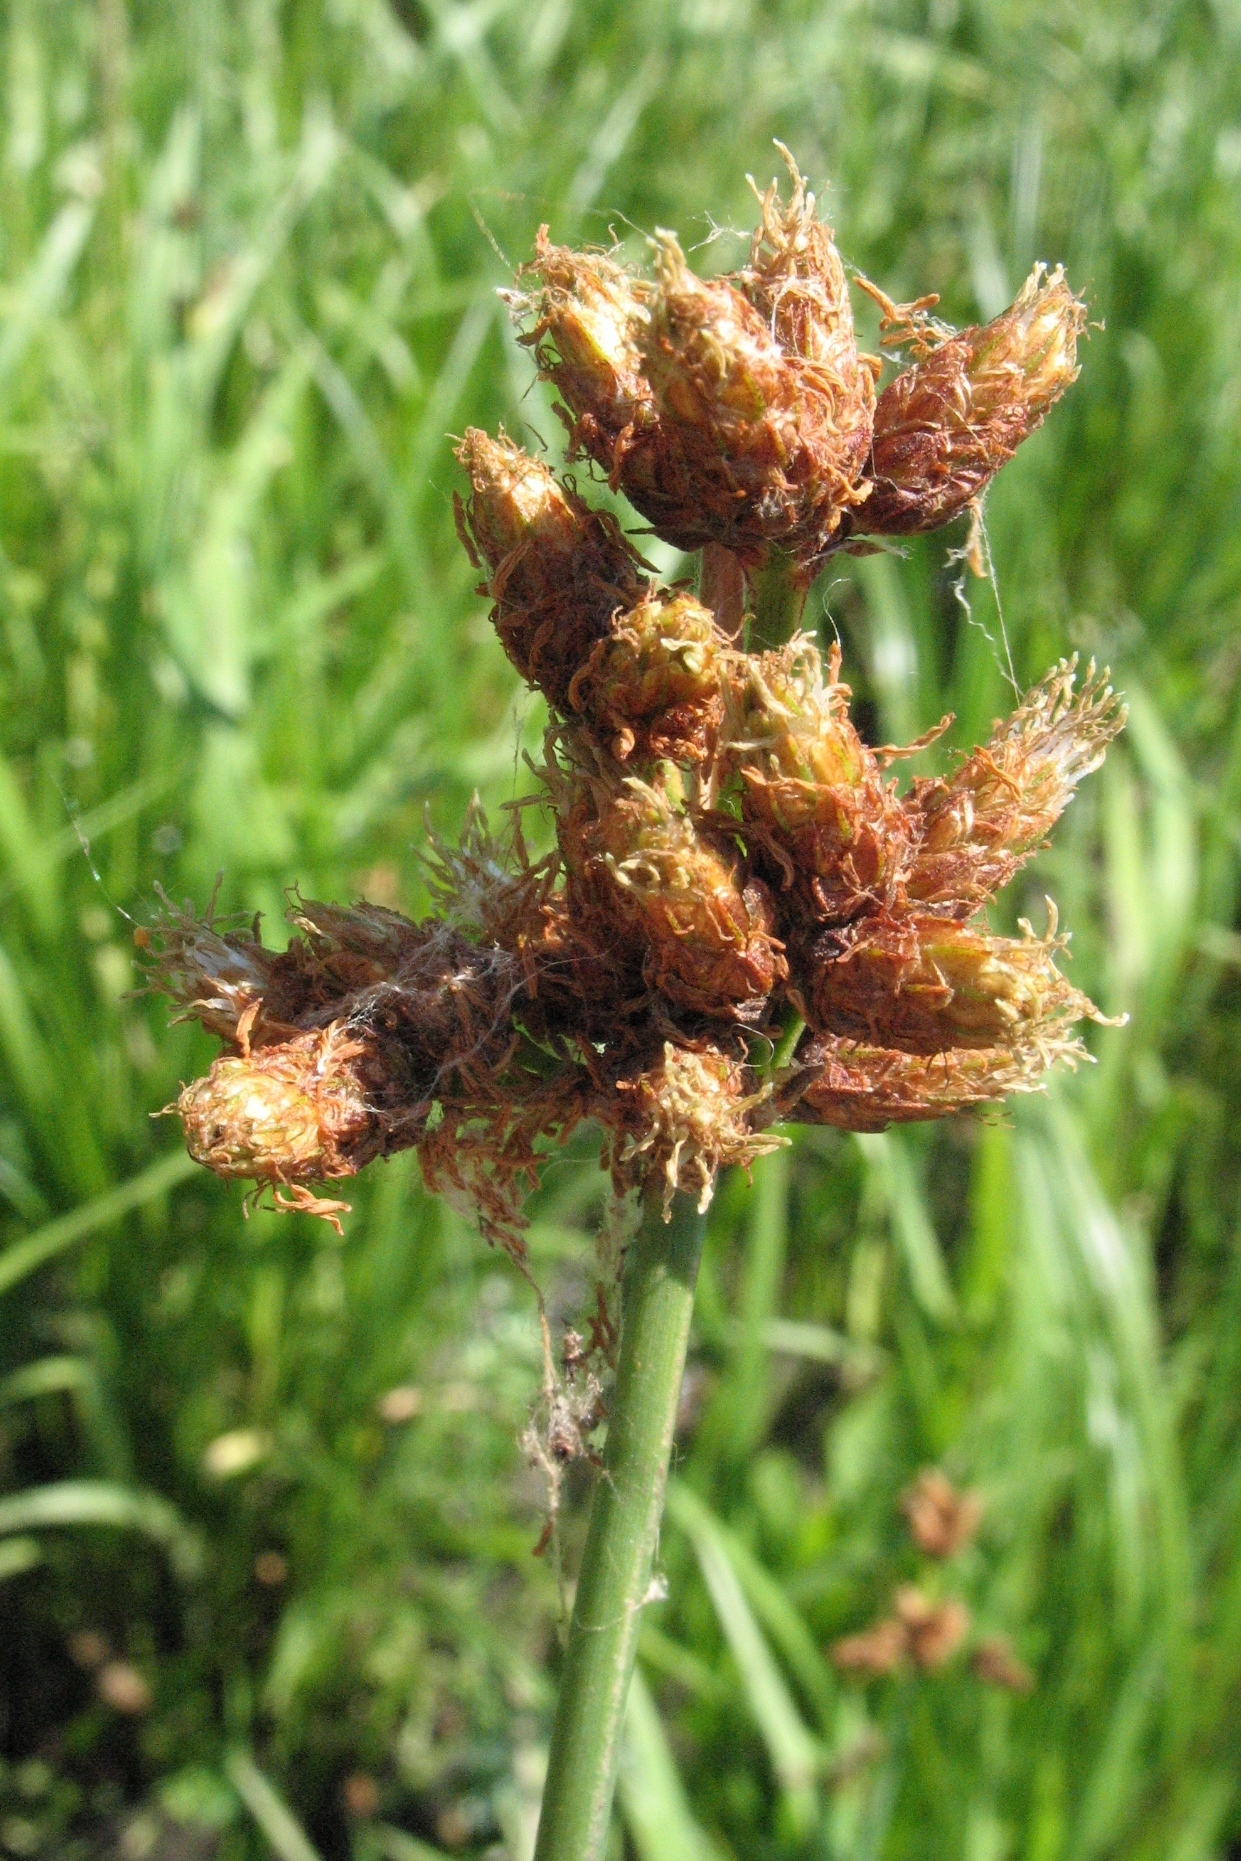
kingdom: Plantae
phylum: Tracheophyta
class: Liliopsida
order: Poales
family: Cyperaceae
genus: Schoenoplectus
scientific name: Schoenoplectus tabernaemontani
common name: Grey club-rush
